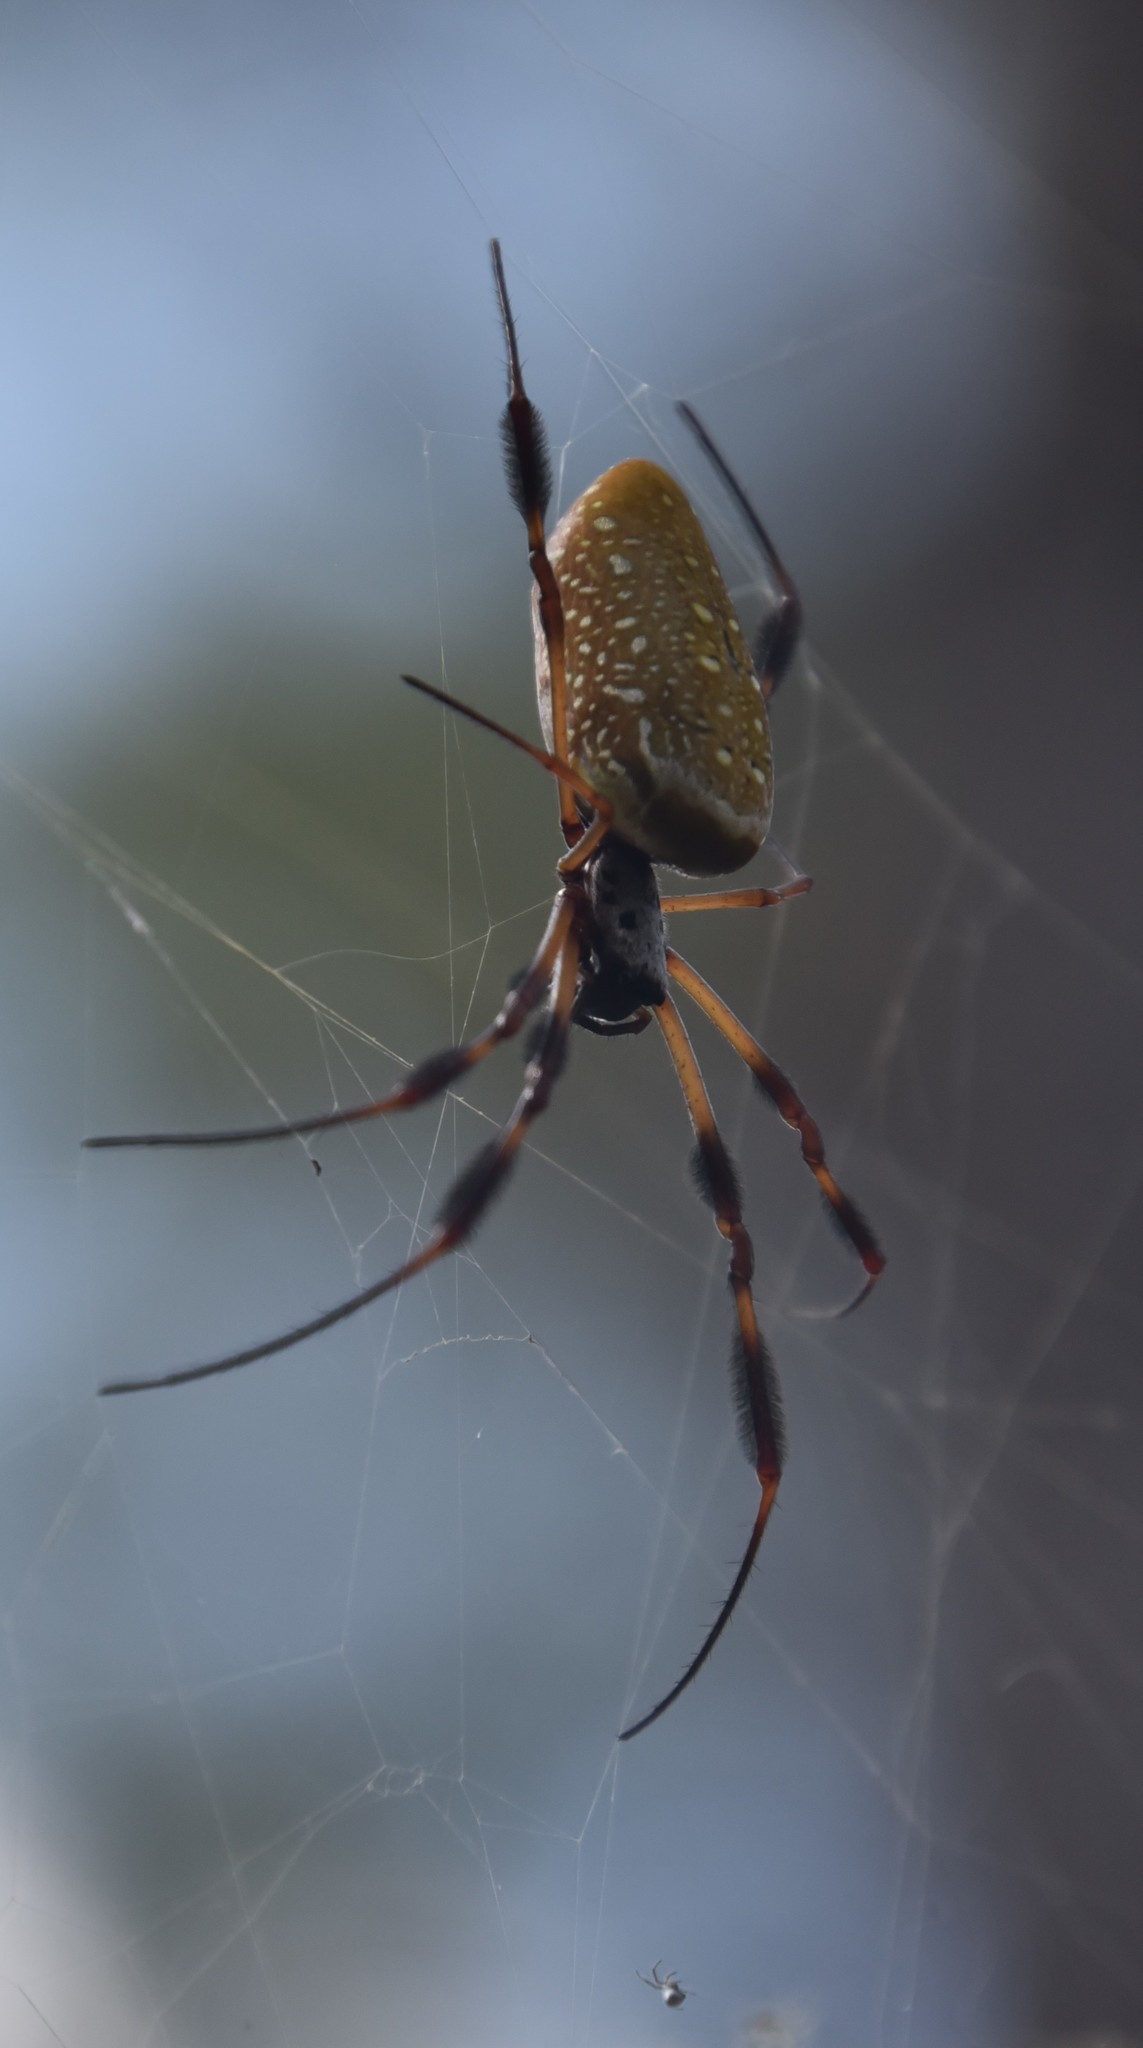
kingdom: Animalia
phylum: Arthropoda
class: Arachnida
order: Araneae
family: Araneidae
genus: Trichonephila
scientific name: Trichonephila clavipes
